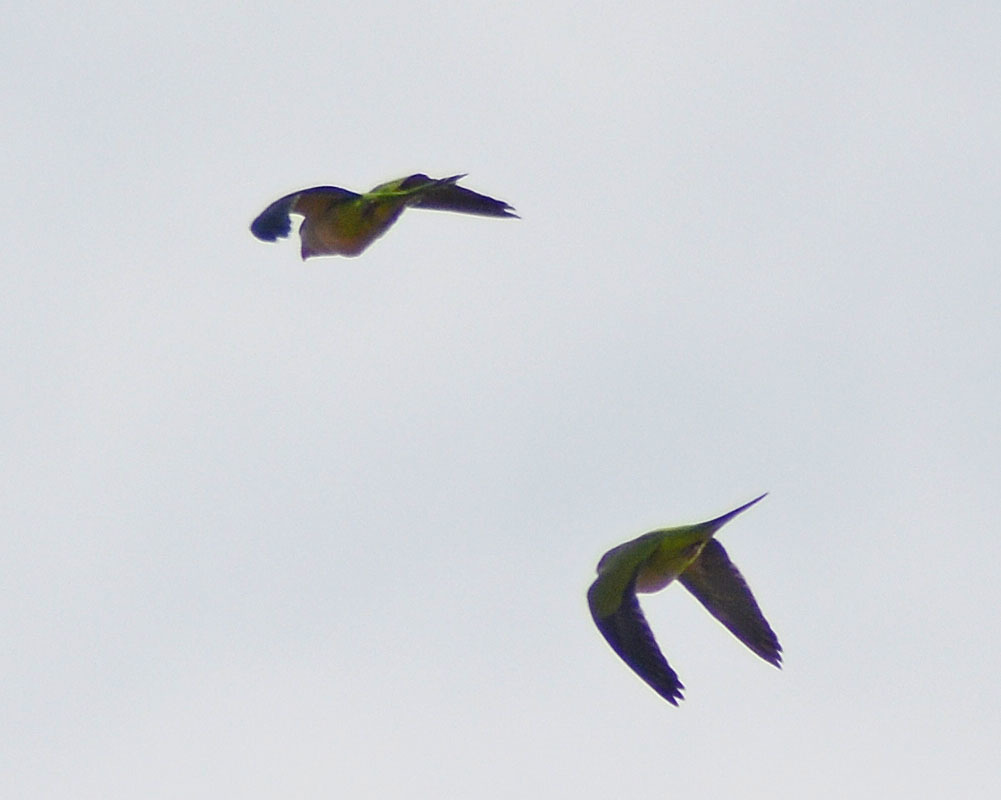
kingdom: Animalia
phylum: Chordata
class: Aves
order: Psittaciformes
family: Psittacidae
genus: Myiopsitta
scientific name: Myiopsitta monachus
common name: Monk parakeet
